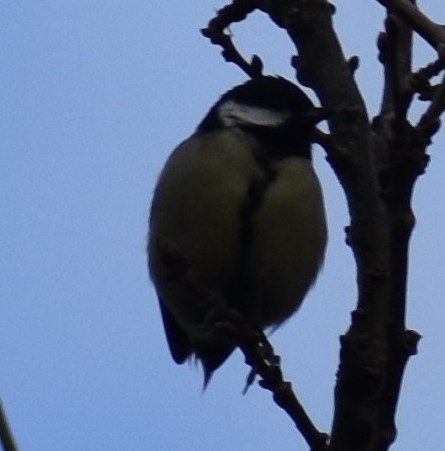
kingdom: Animalia
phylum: Chordata
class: Aves
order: Passeriformes
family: Paridae
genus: Parus
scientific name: Parus major
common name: Great tit
